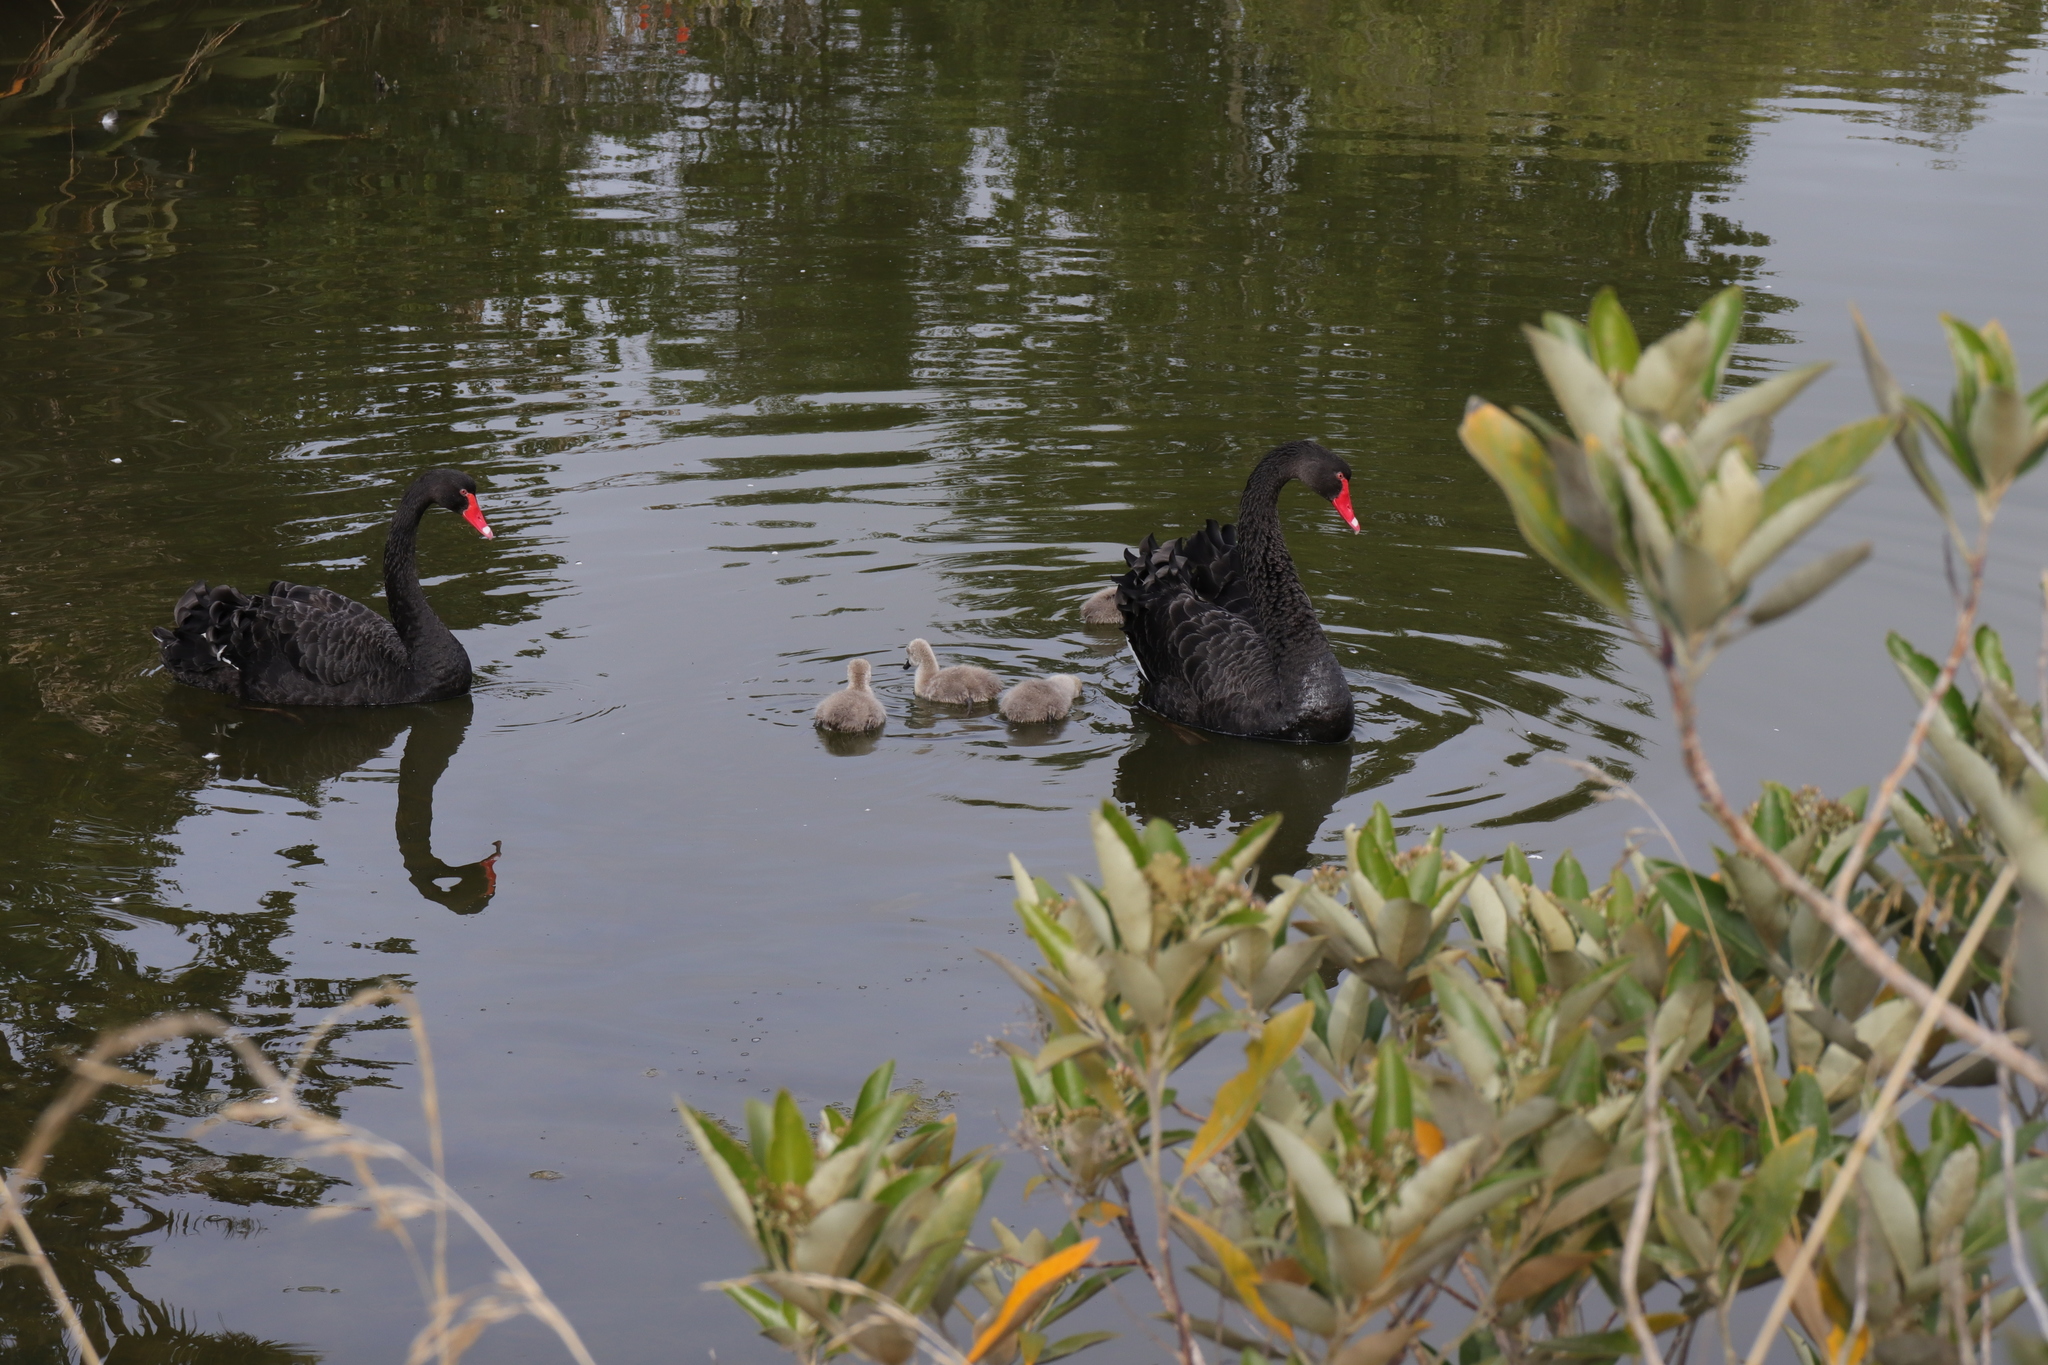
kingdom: Animalia
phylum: Chordata
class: Aves
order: Anseriformes
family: Anatidae
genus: Cygnus
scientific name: Cygnus atratus
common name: Black swan
